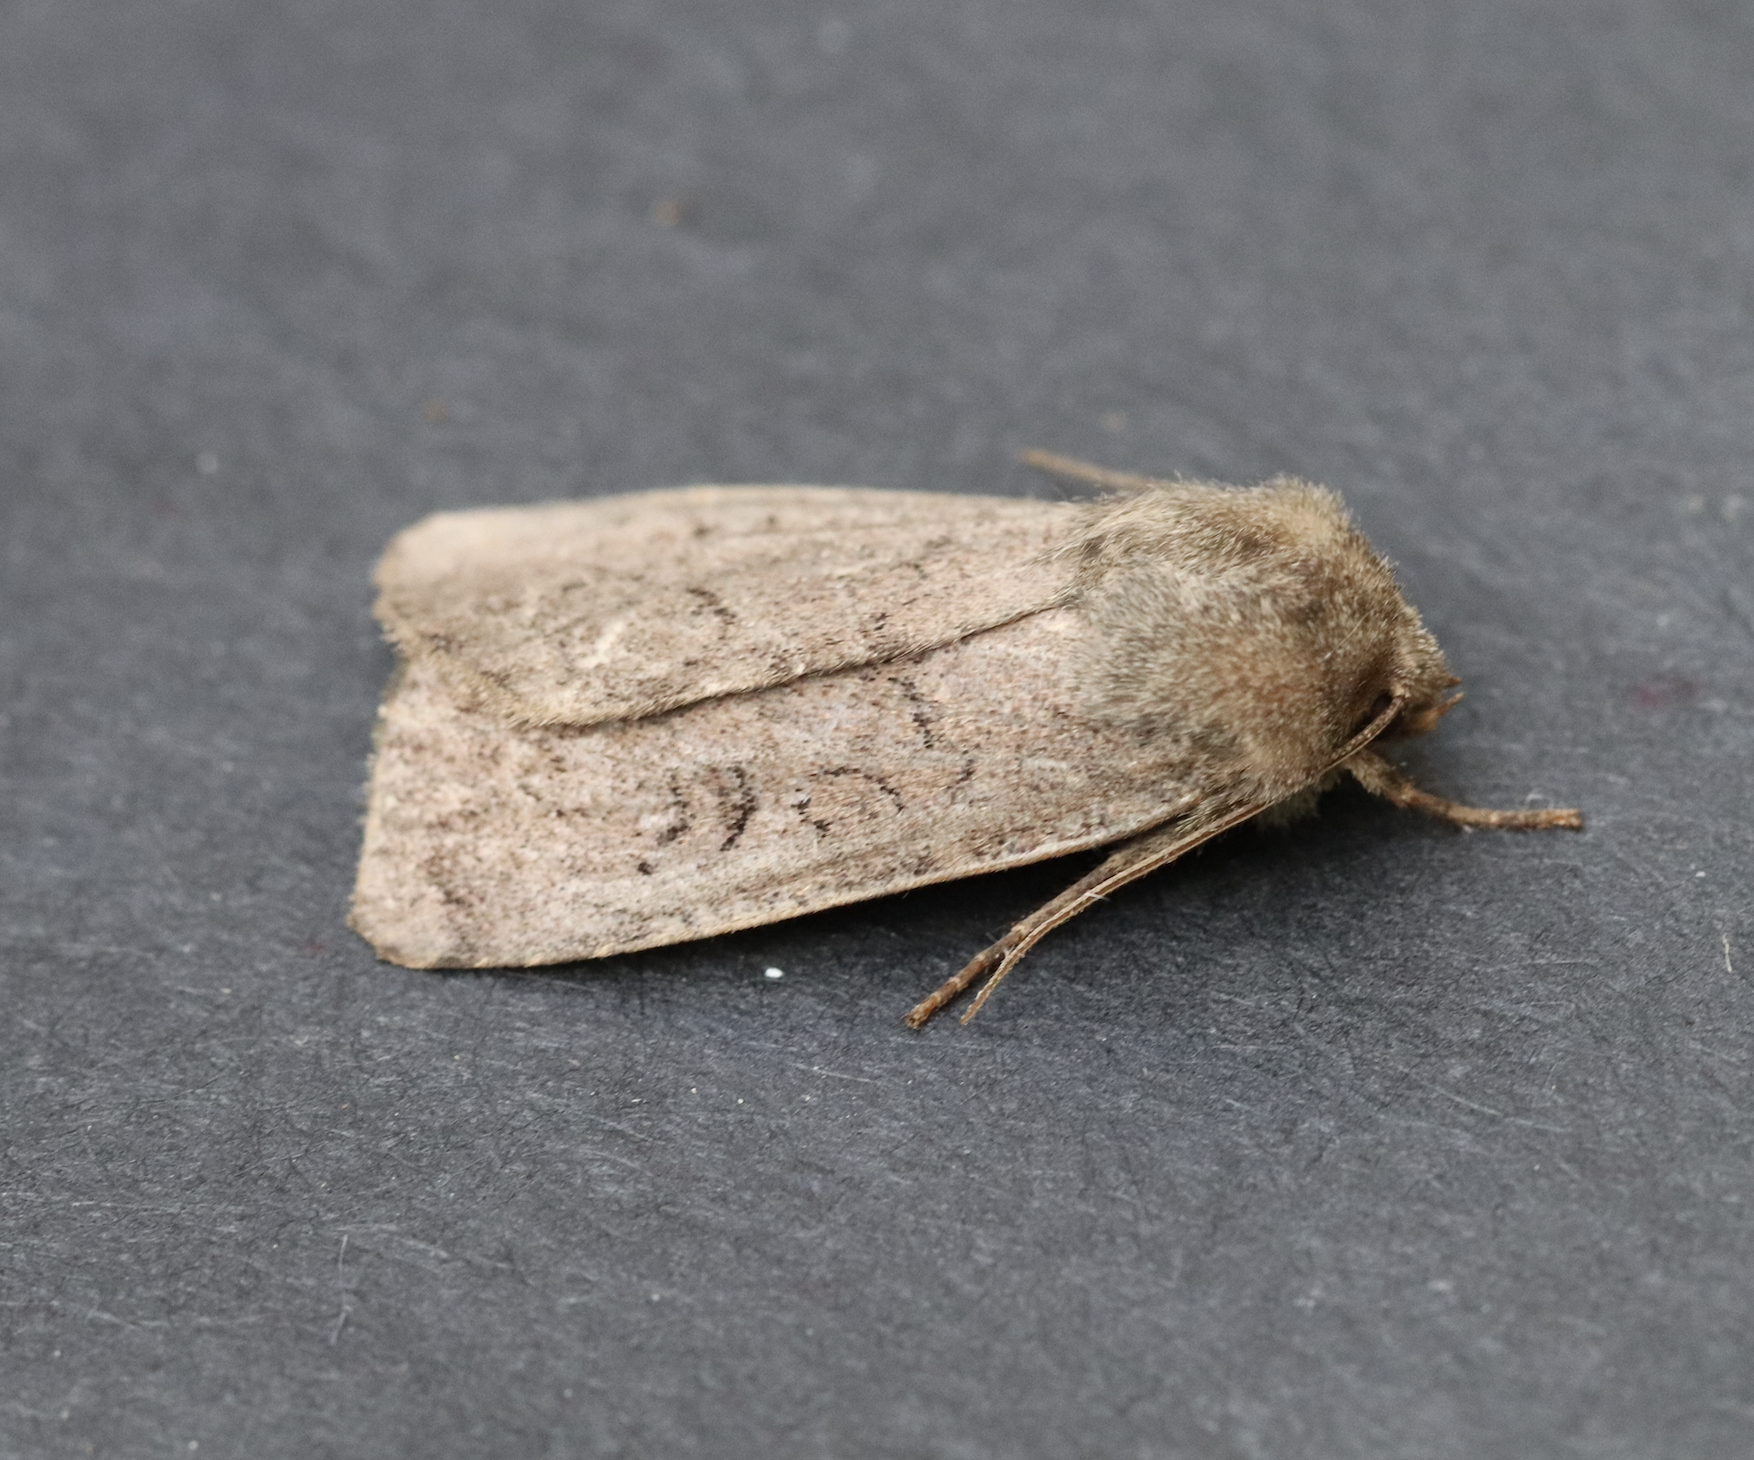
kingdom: Animalia
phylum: Arthropoda
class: Insecta
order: Lepidoptera
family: Noctuidae
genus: Graphiphora
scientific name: Graphiphora augur
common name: Double dart
